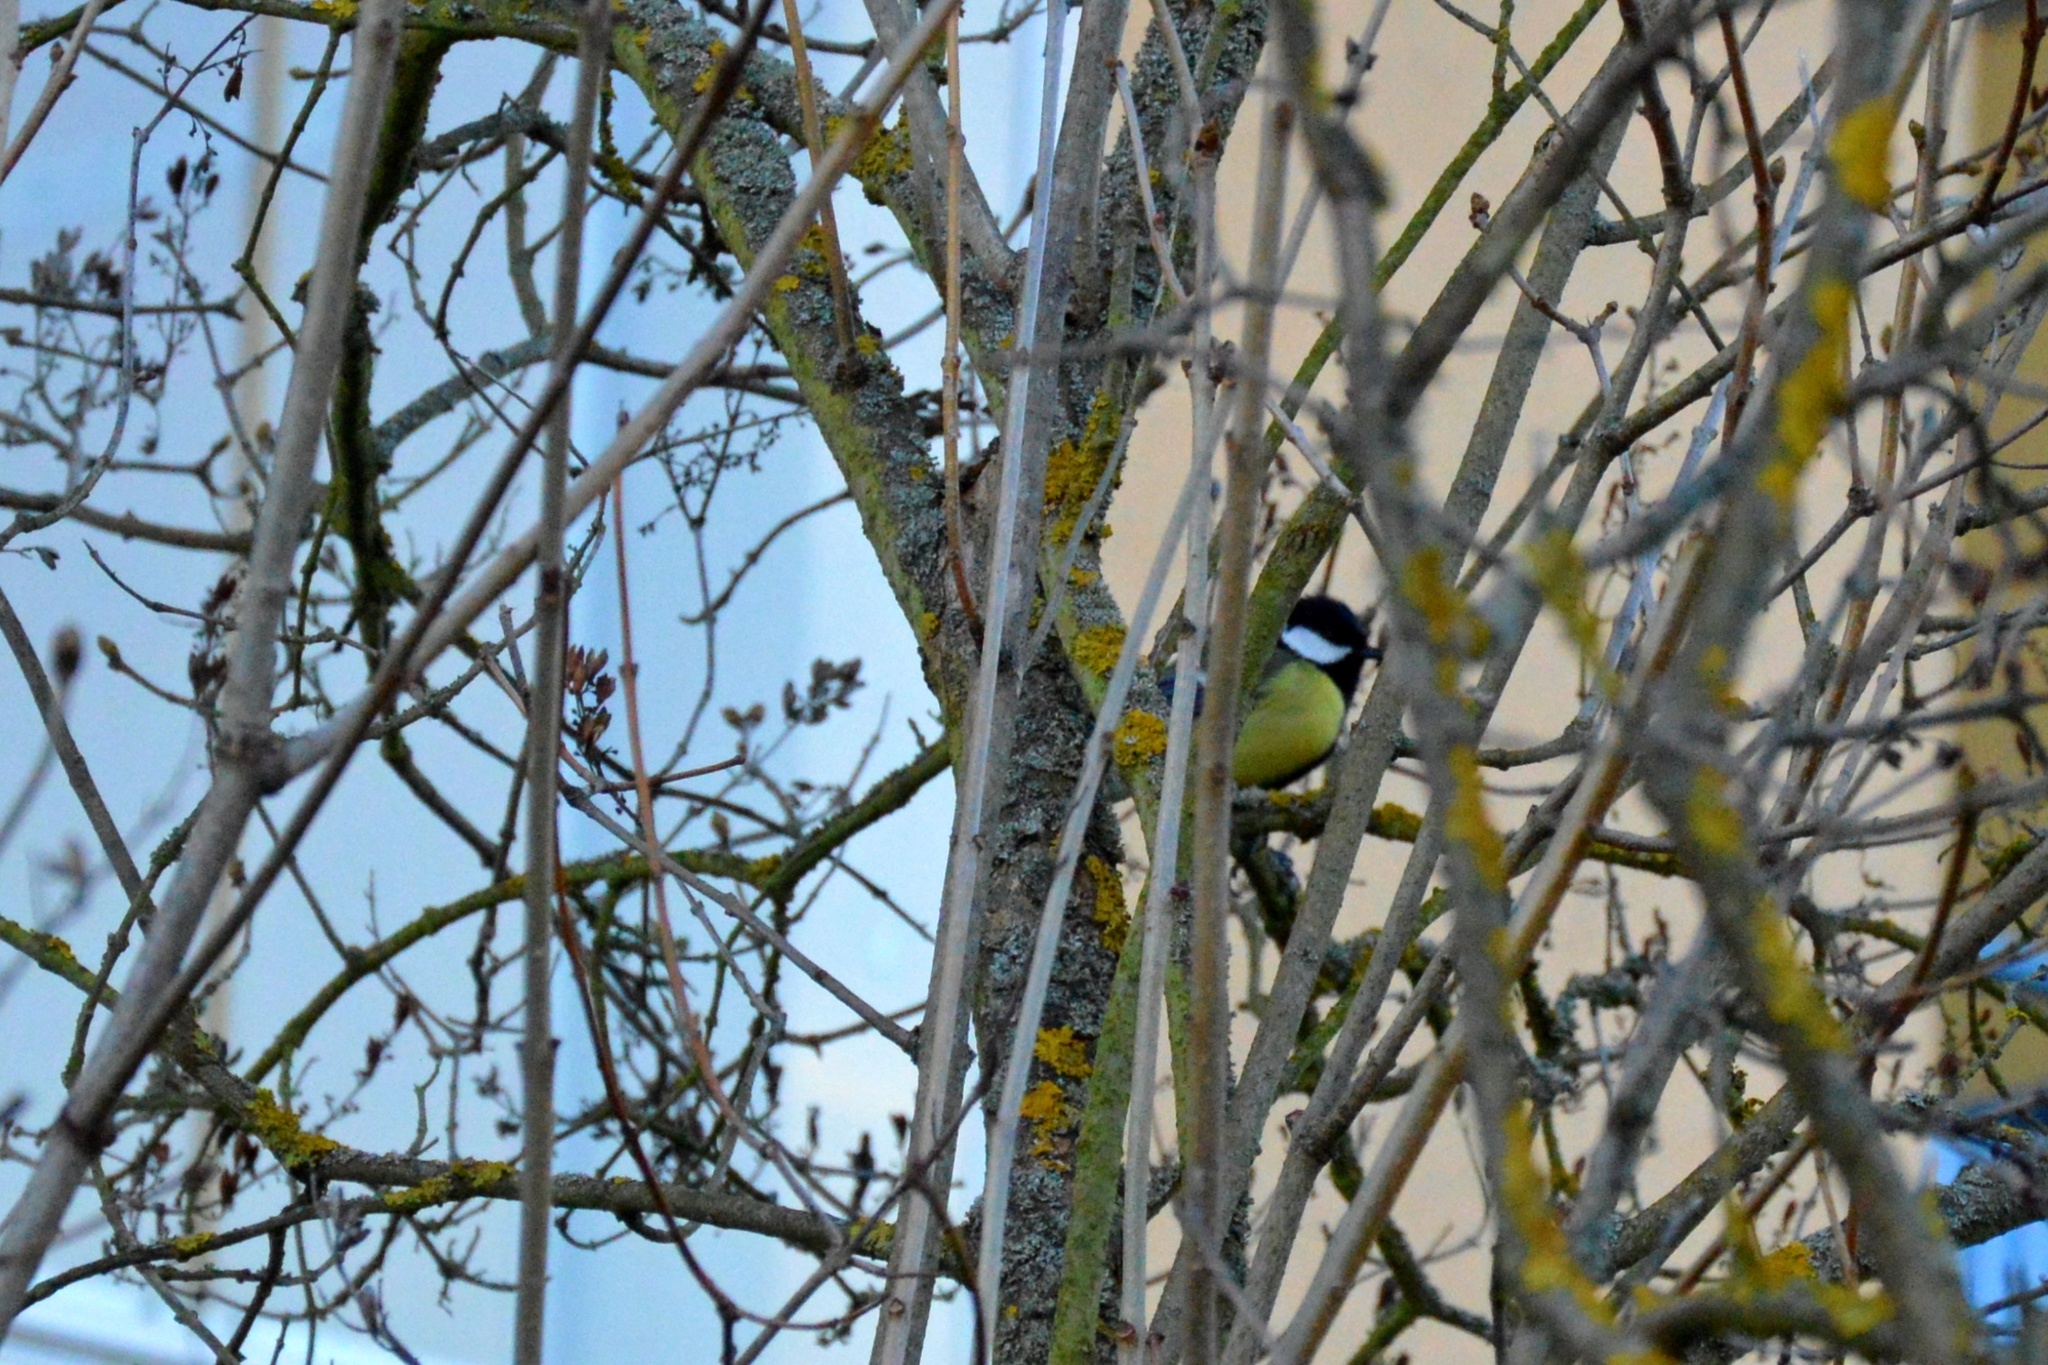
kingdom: Animalia
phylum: Chordata
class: Aves
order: Passeriformes
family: Paridae
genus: Parus
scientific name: Parus major
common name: Great tit
